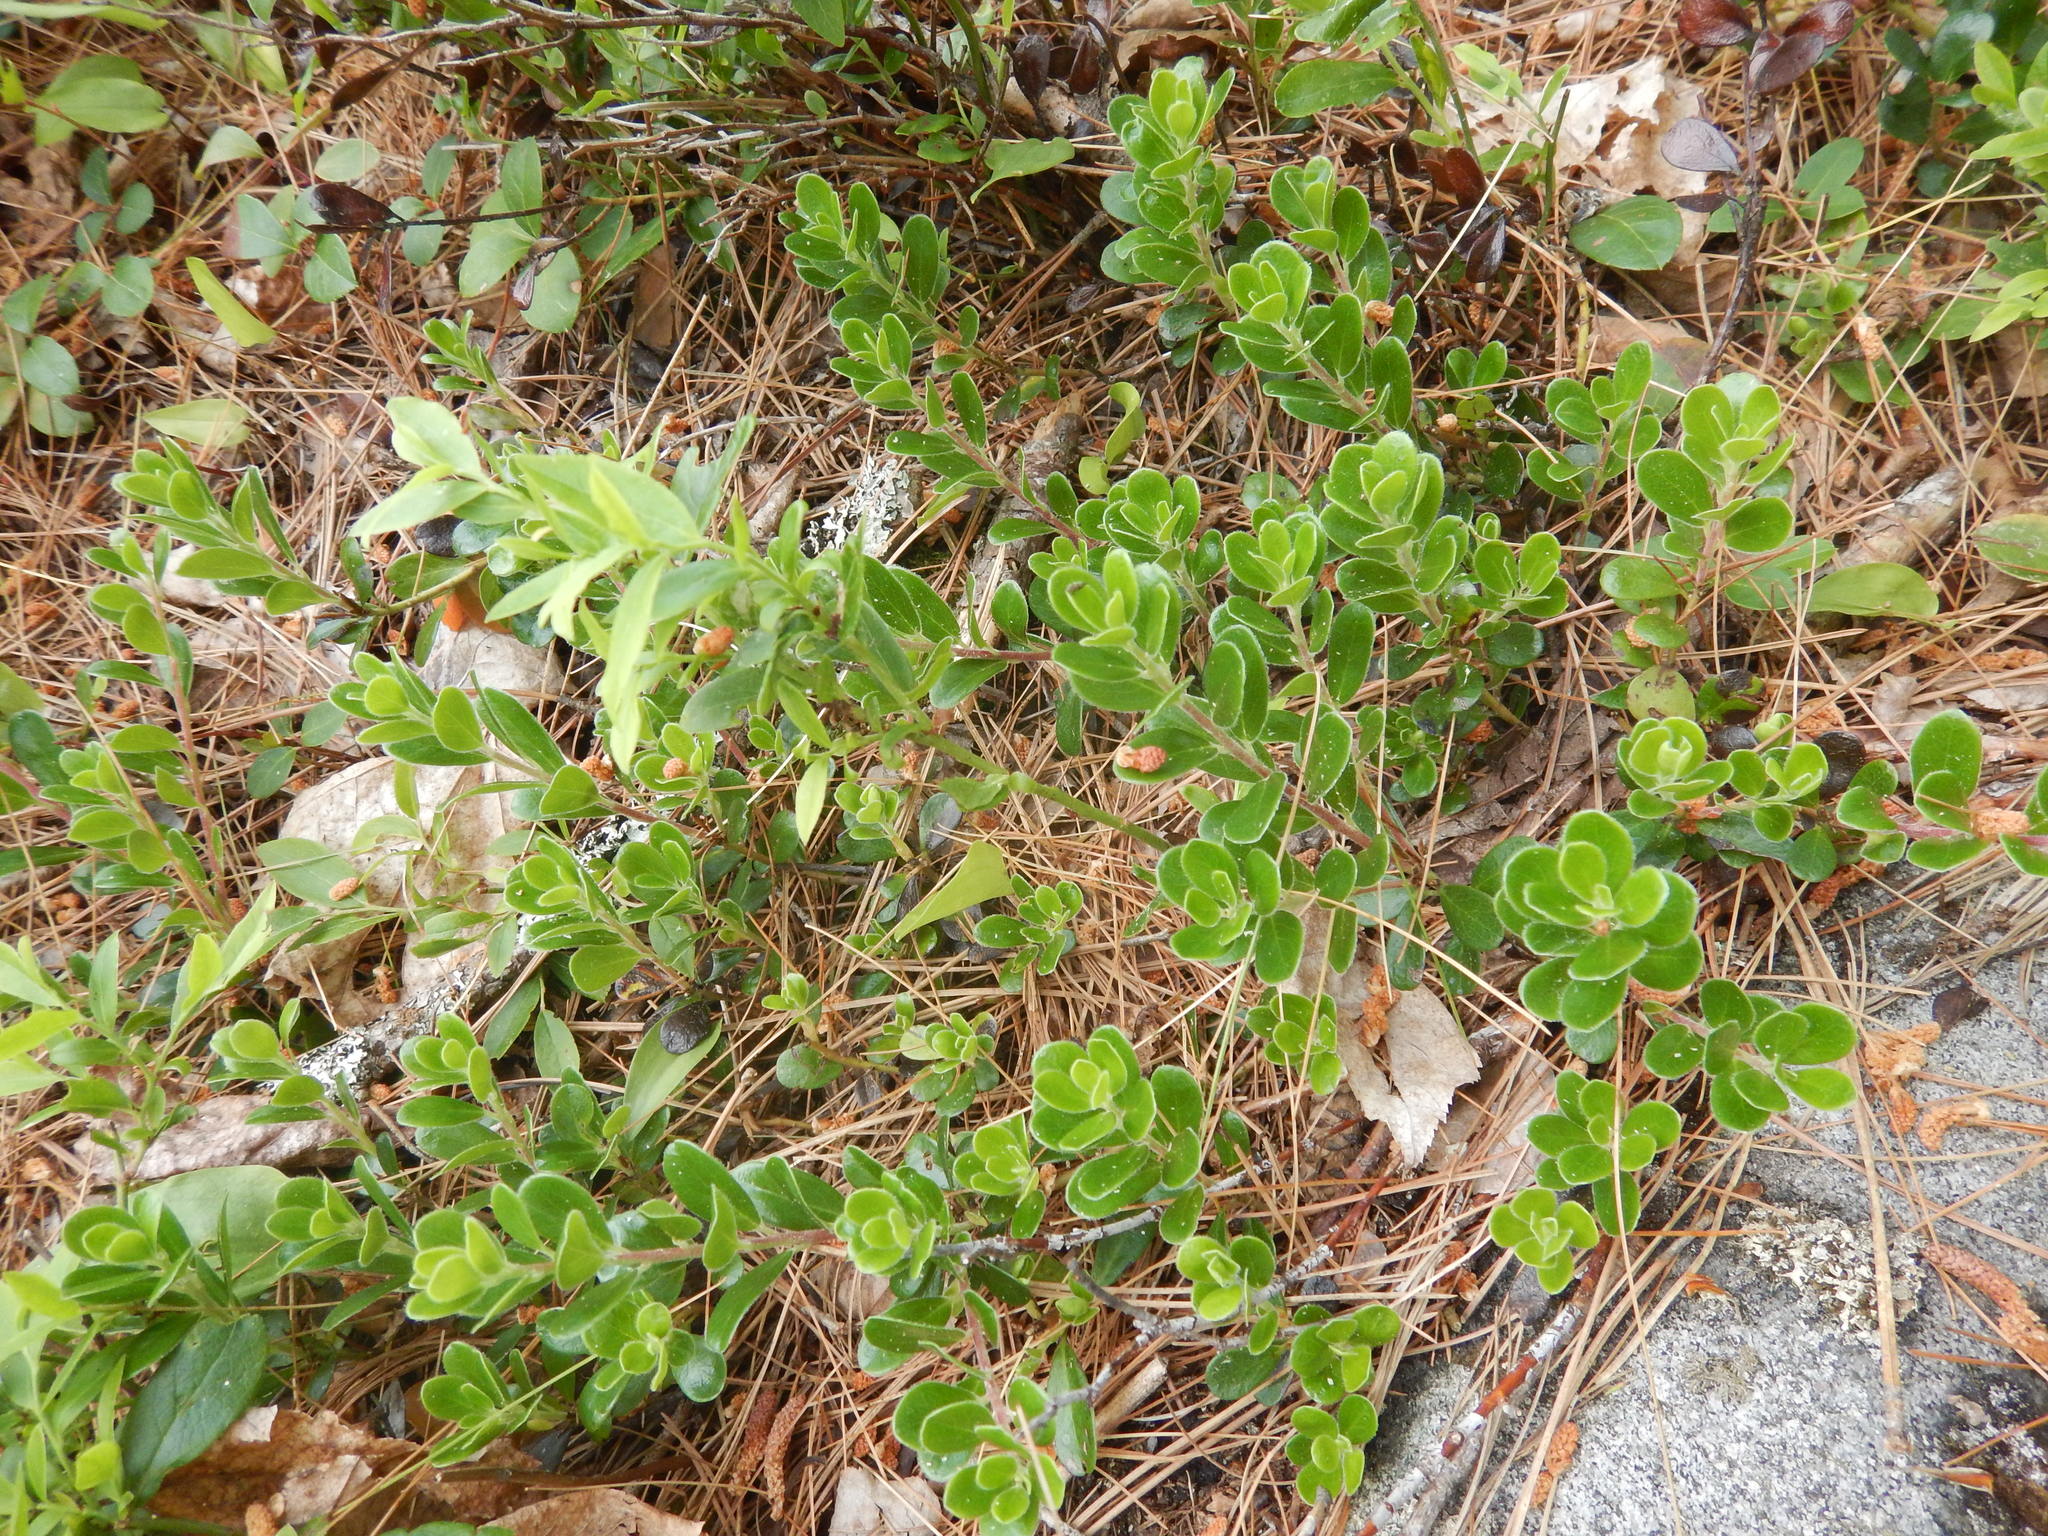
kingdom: Plantae
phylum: Tracheophyta
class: Magnoliopsida
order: Ericales
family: Ericaceae
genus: Arctostaphylos
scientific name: Arctostaphylos uva-ursi
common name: Bearberry
